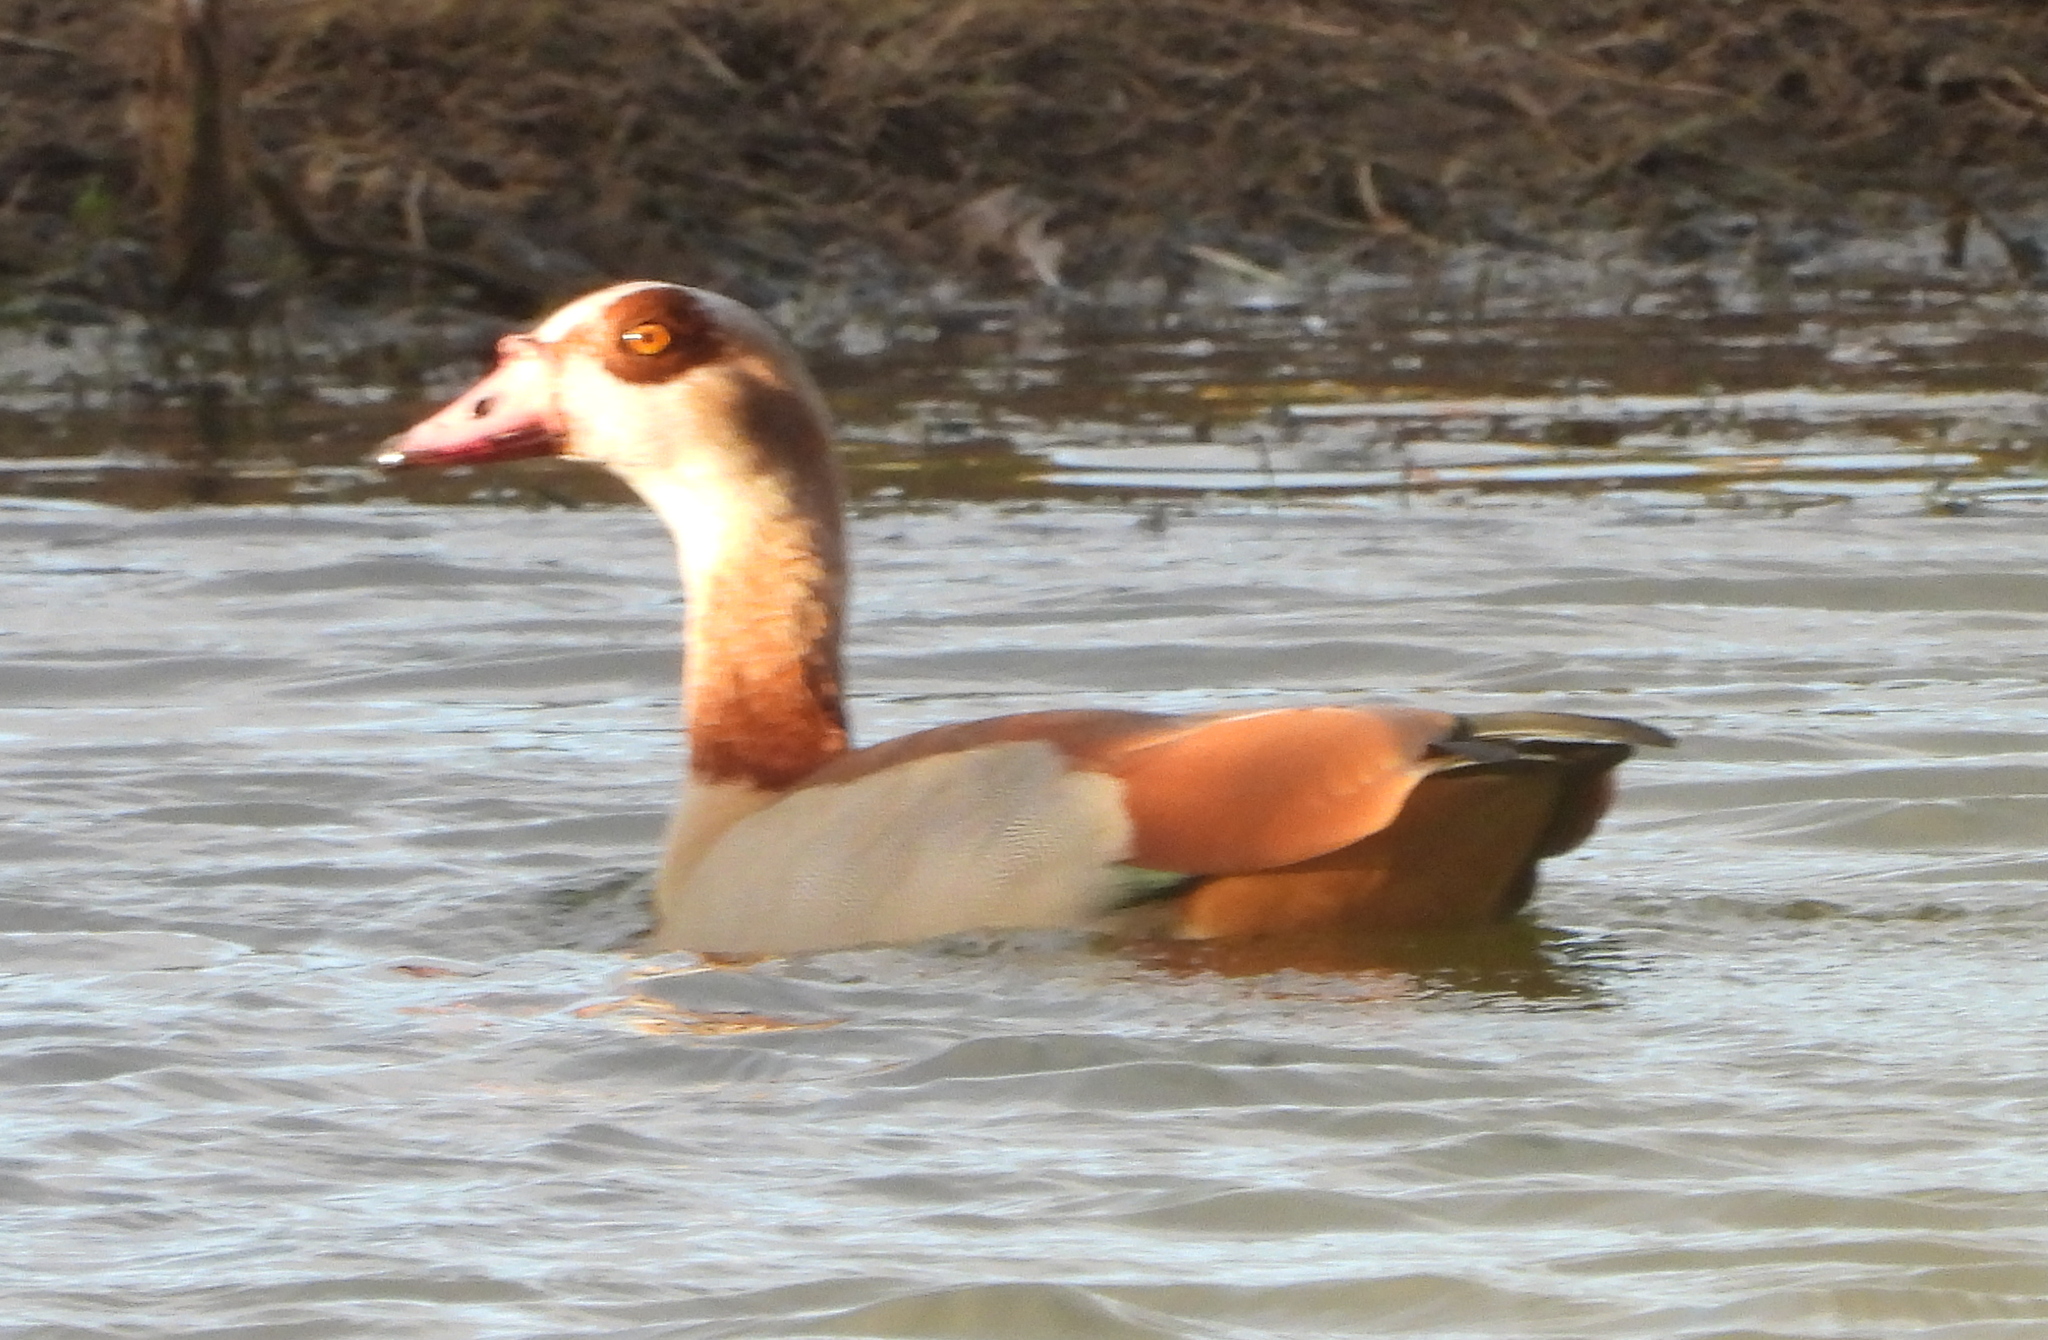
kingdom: Animalia
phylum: Chordata
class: Aves
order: Anseriformes
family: Anatidae
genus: Alopochen
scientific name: Alopochen aegyptiaca
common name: Egyptian goose
